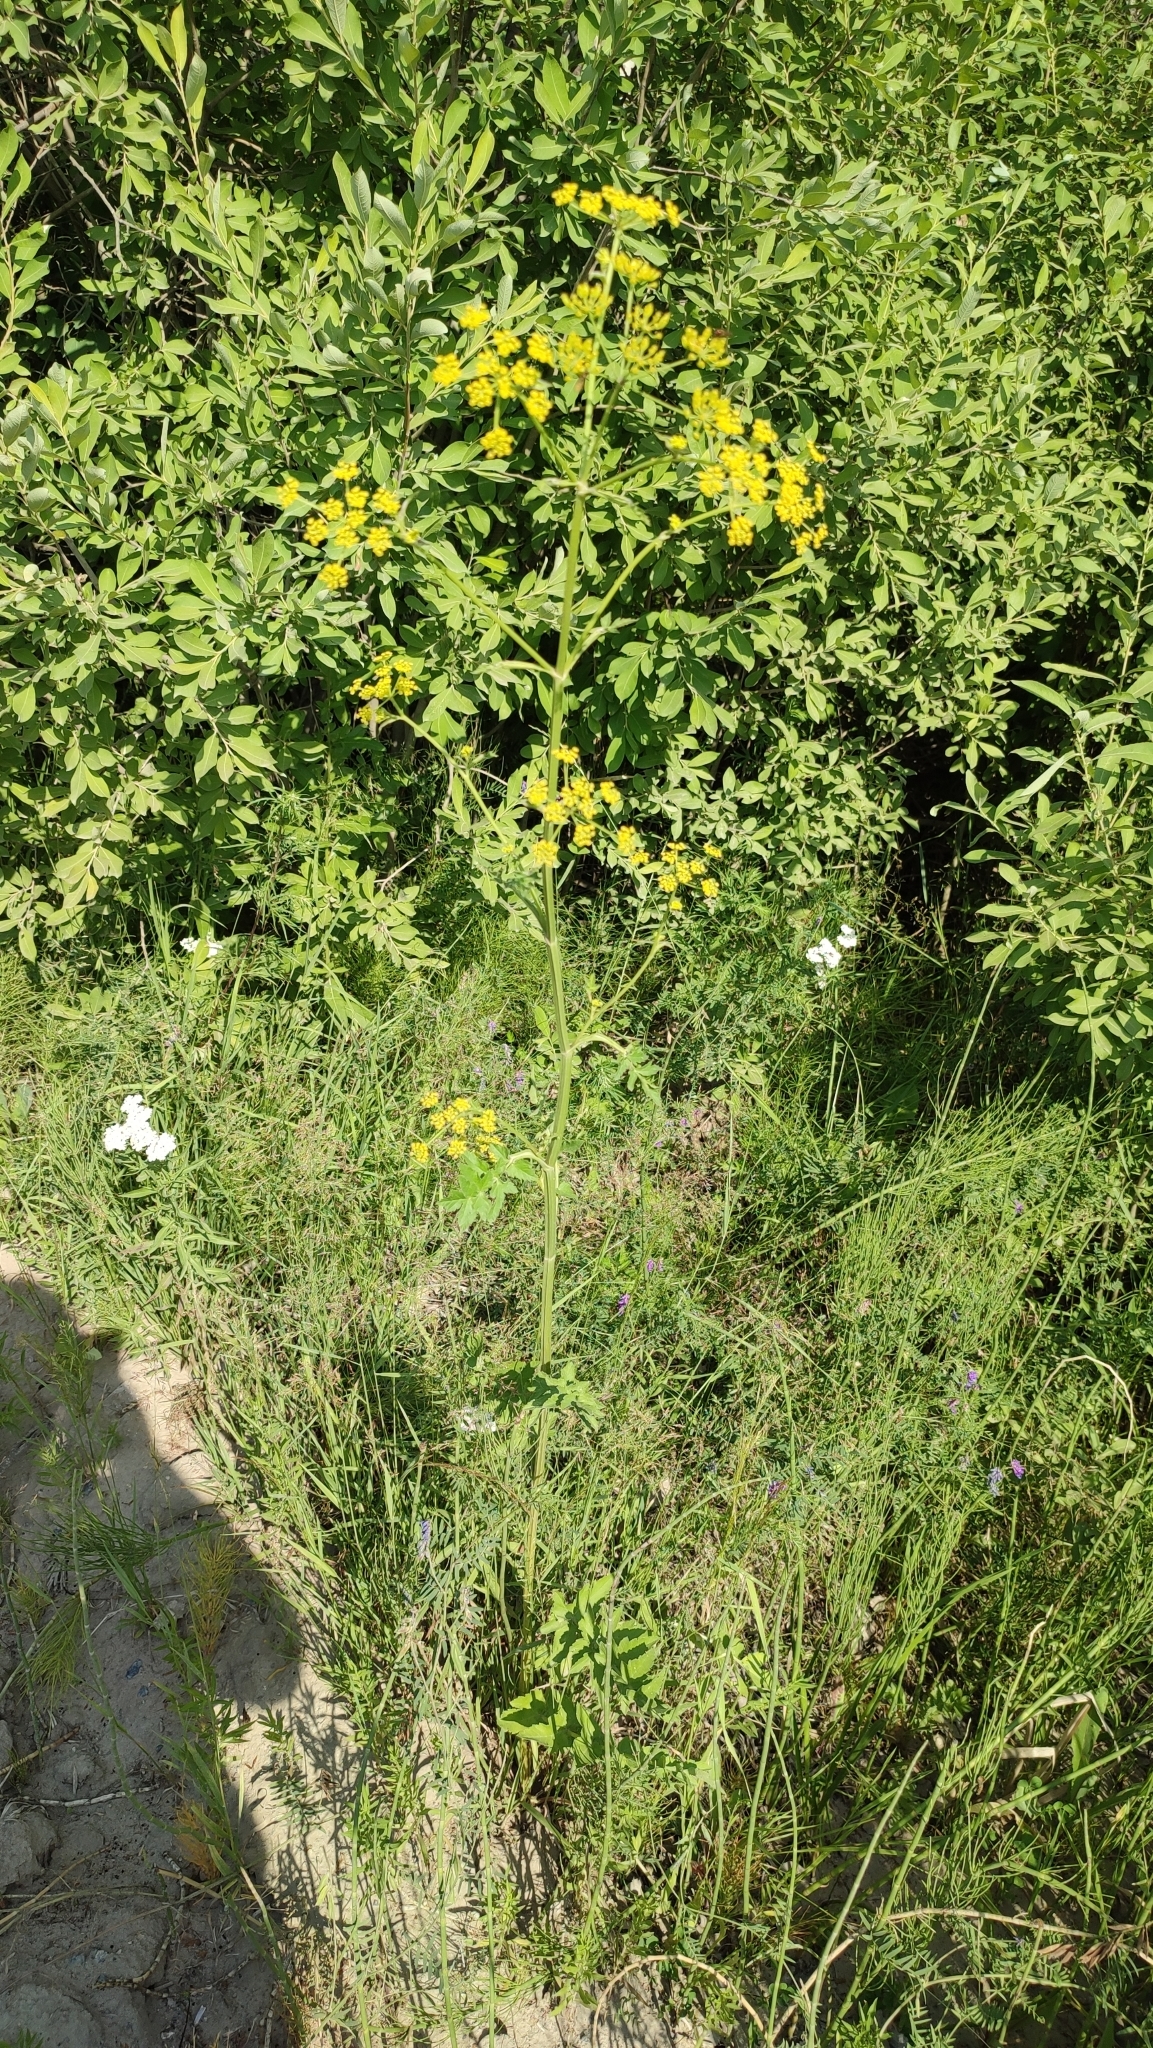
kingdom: Plantae
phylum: Tracheophyta
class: Magnoliopsida
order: Apiales
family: Apiaceae
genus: Pastinaca
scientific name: Pastinaca sativa
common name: Wild parsnip
